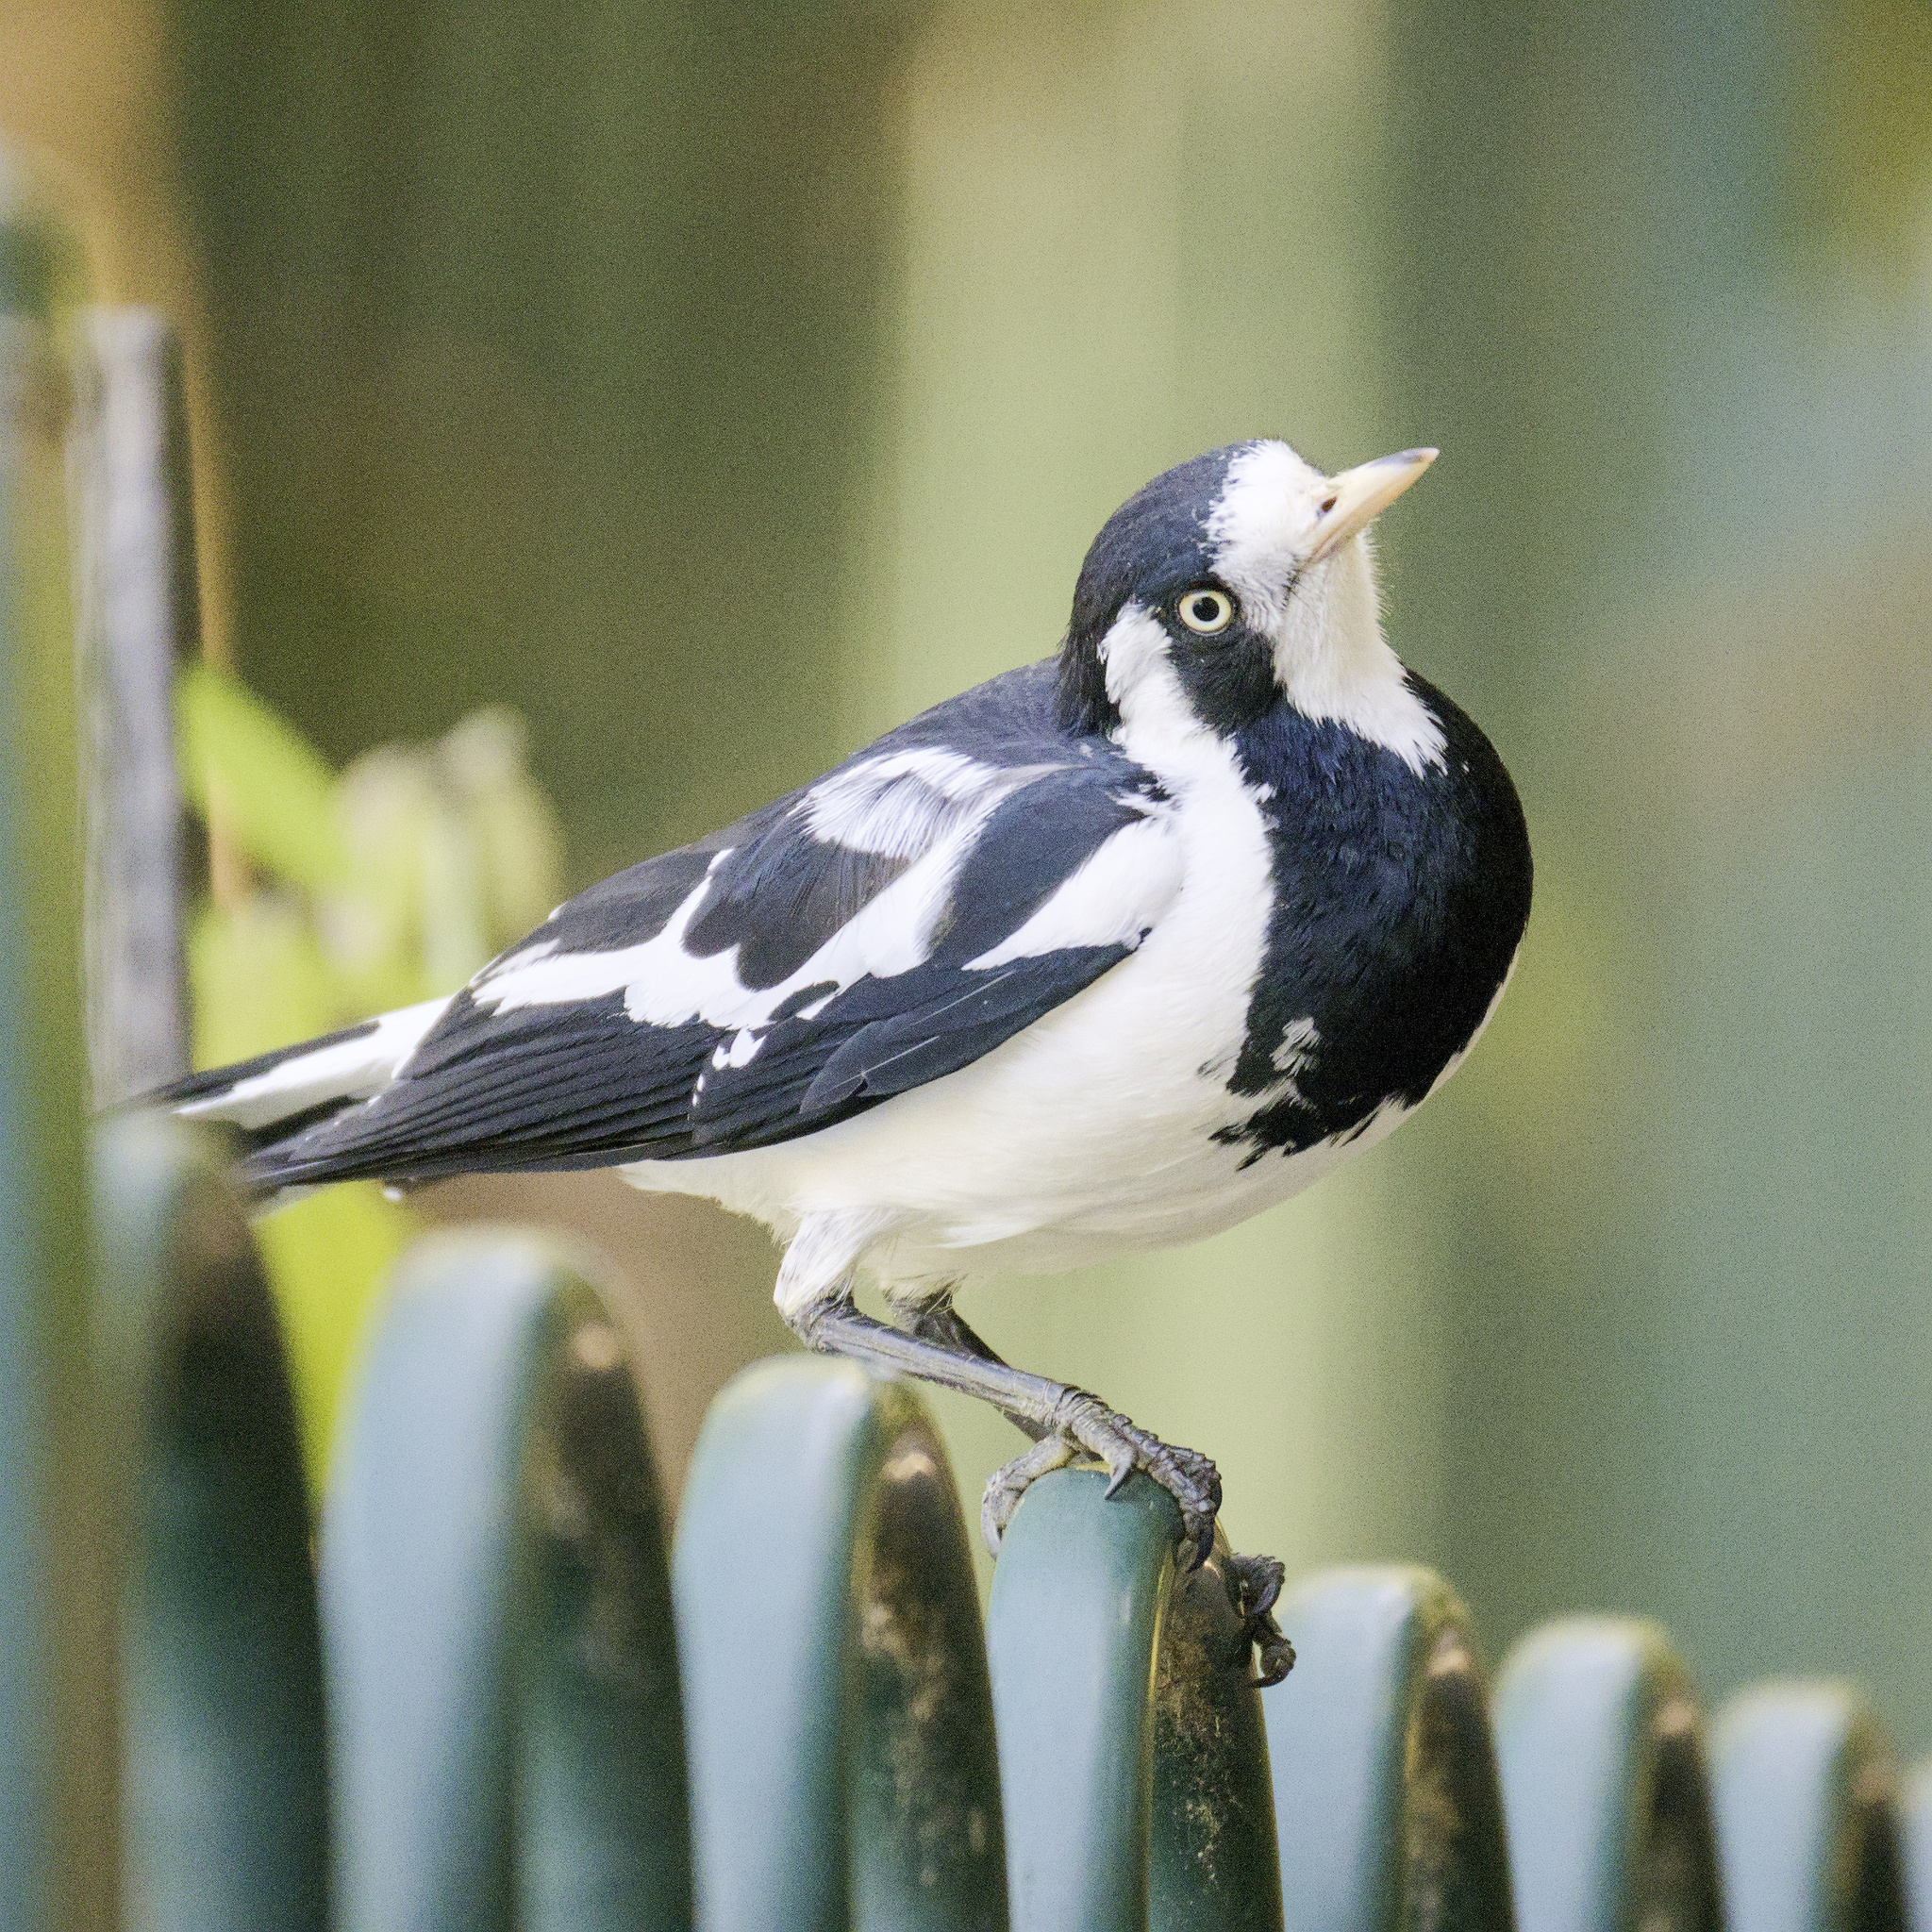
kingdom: Animalia
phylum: Chordata
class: Aves
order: Passeriformes
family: Monarchidae
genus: Grallina
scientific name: Grallina cyanoleuca
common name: Magpie-lark
